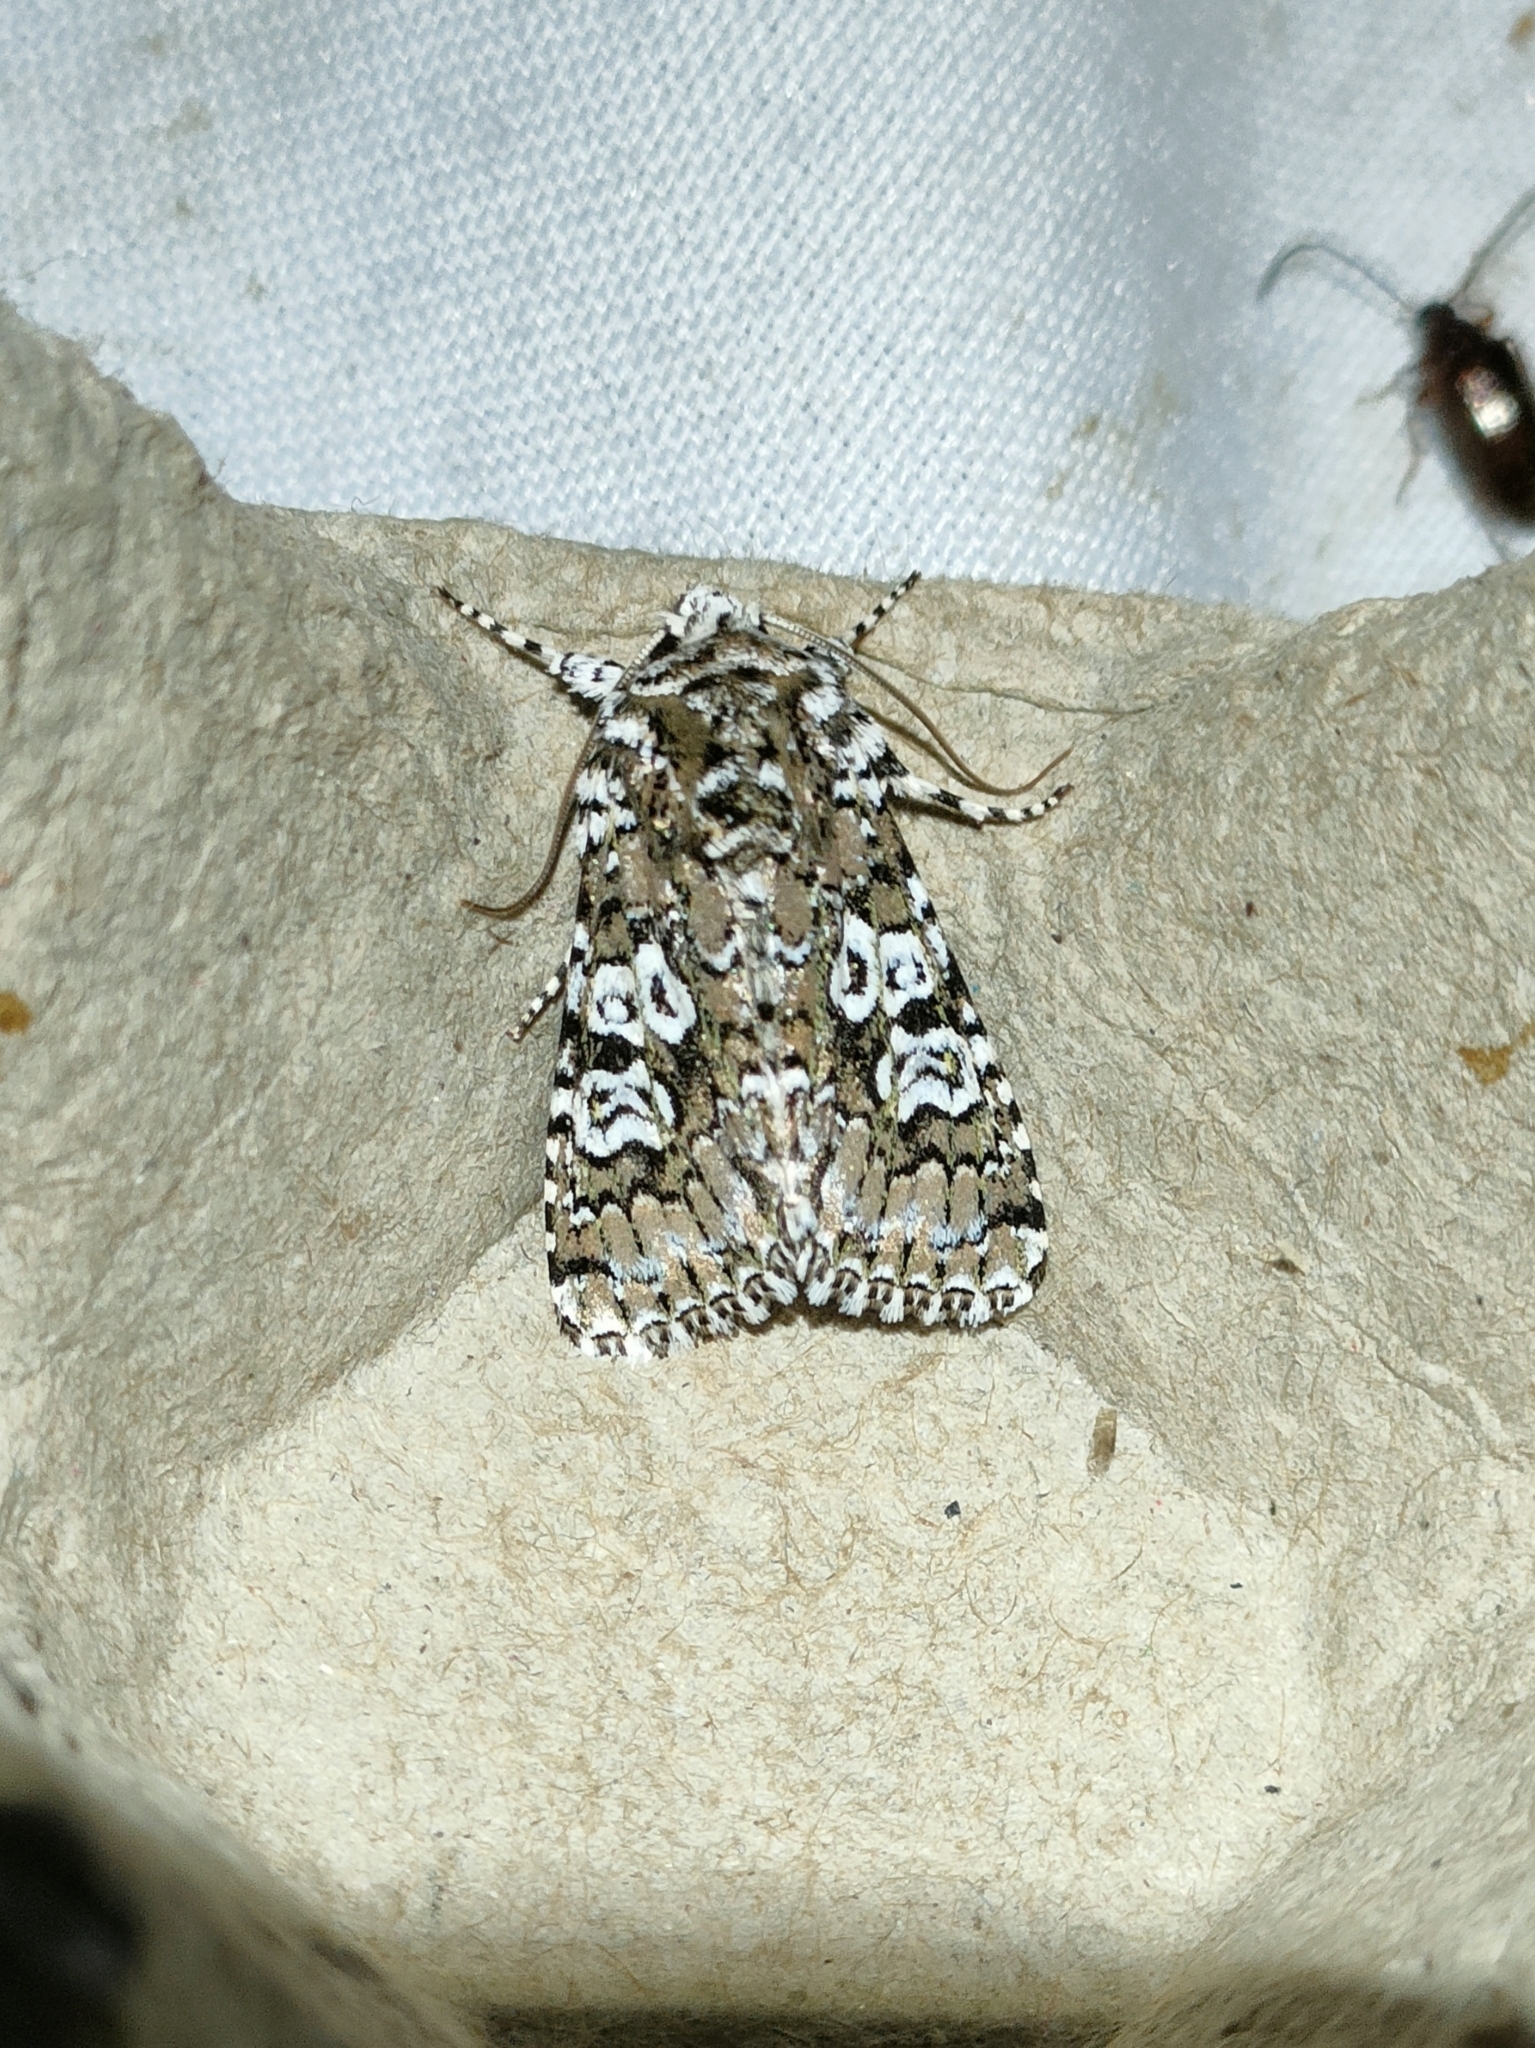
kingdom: Animalia
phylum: Arthropoda
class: Insecta
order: Lepidoptera
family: Noctuidae
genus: Lamprosticta
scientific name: Lamprosticta culta
